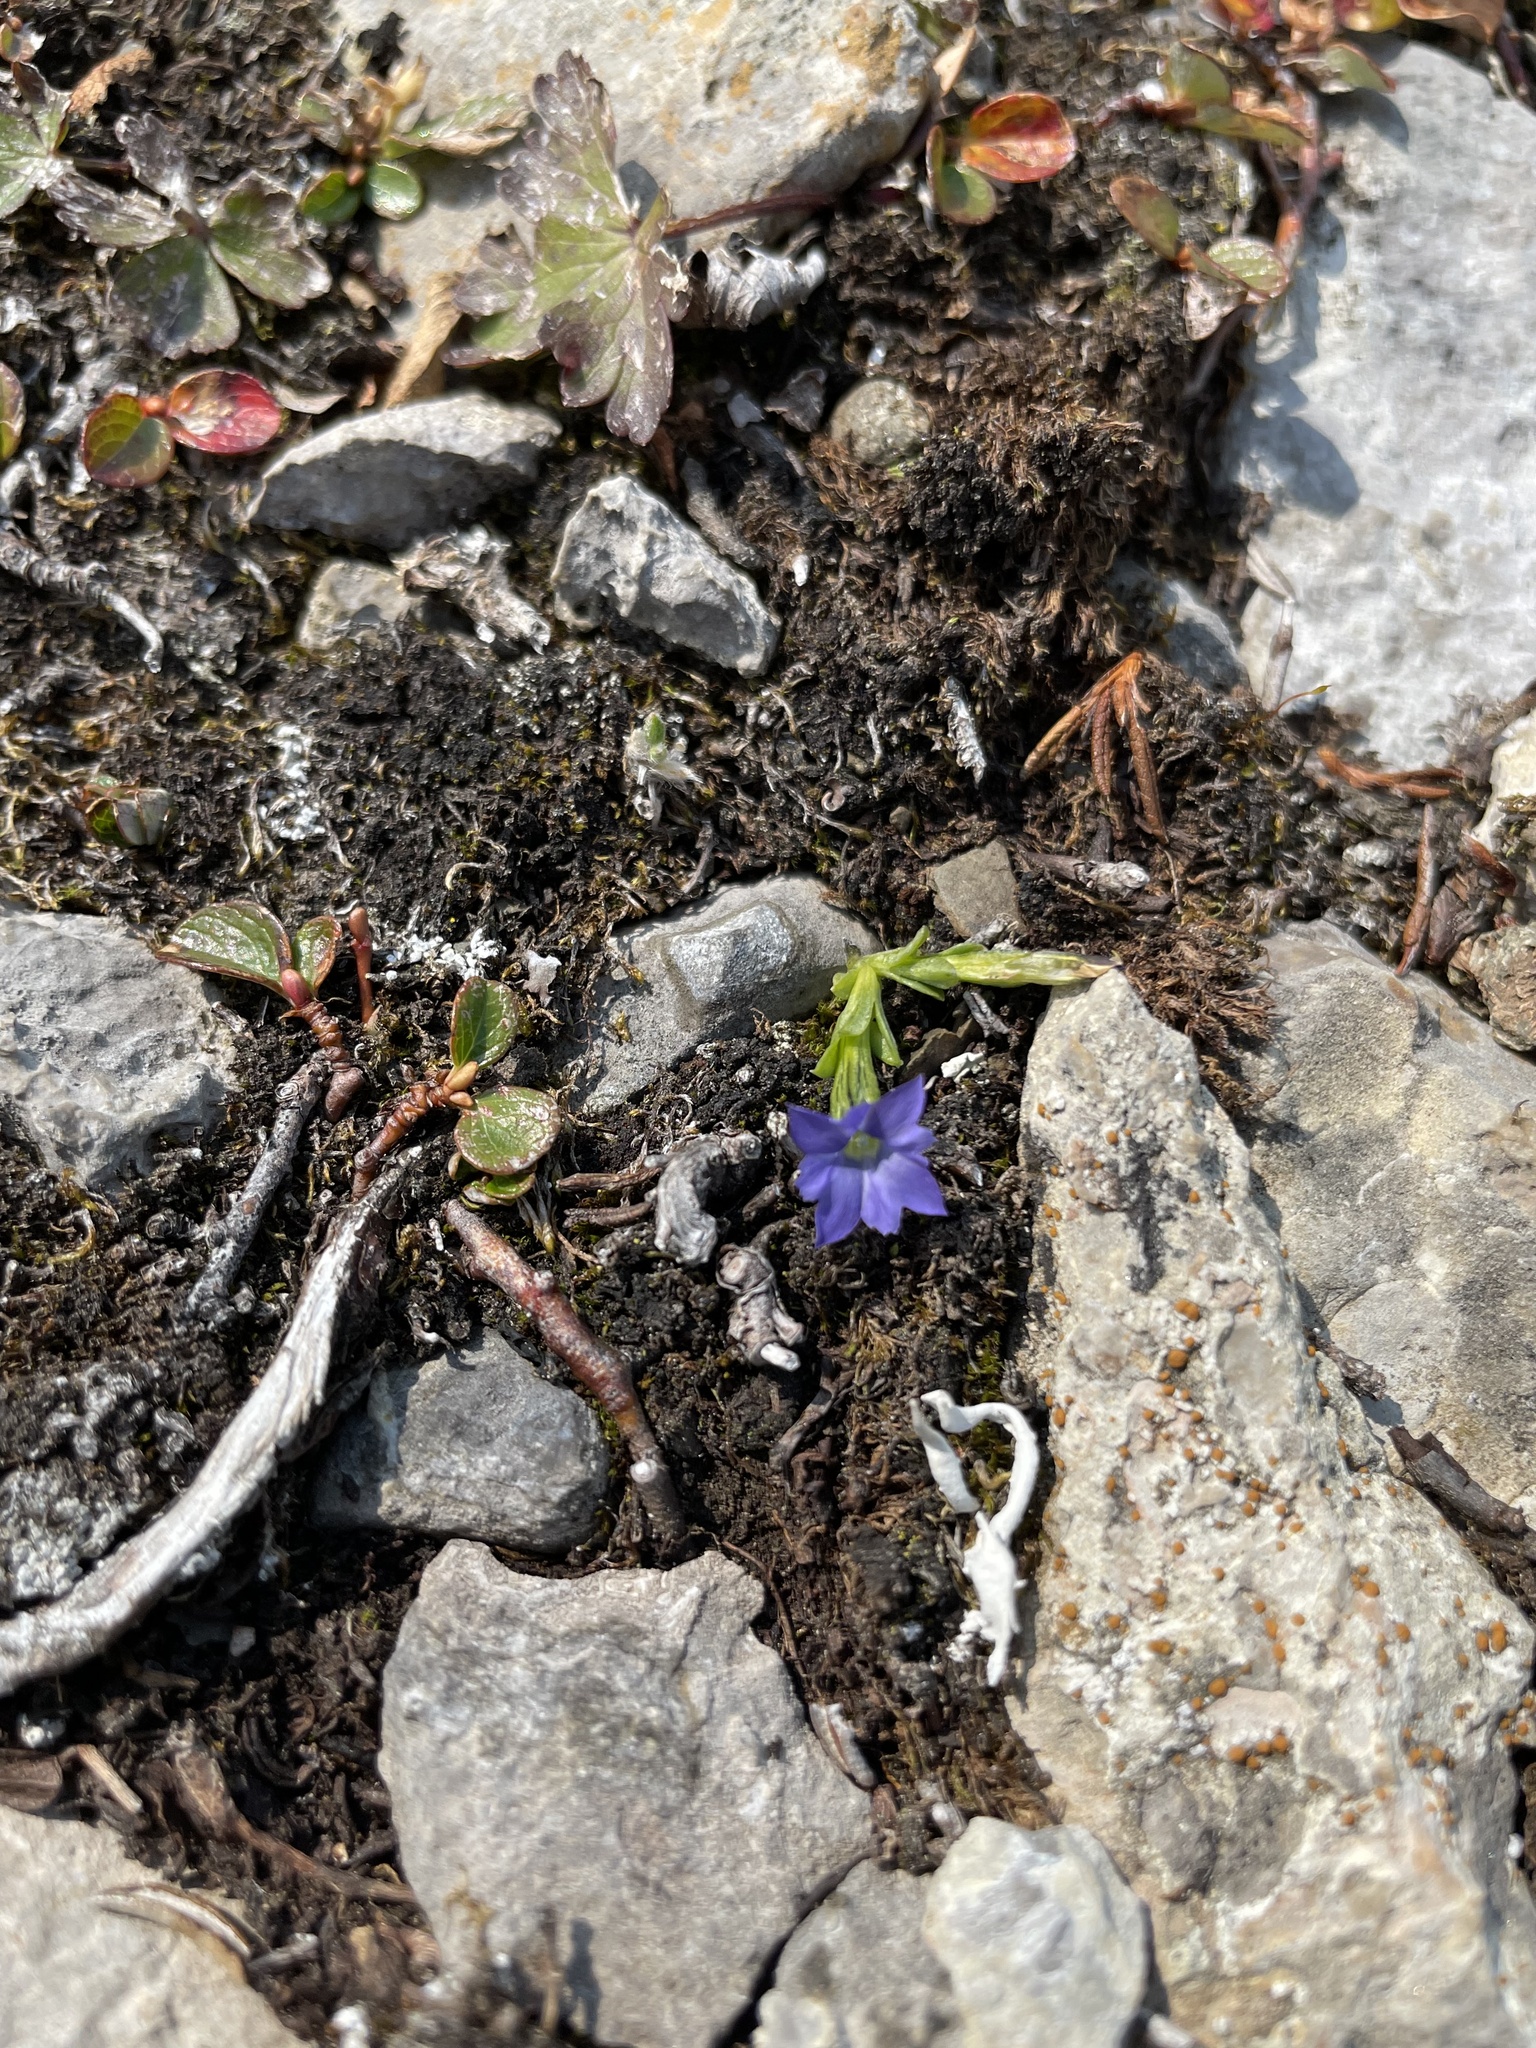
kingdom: Plantae
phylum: Tracheophyta
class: Magnoliopsida
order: Gentianales
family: Gentianaceae
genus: Gentiana
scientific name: Gentiana prostrata
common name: Moss gentian
